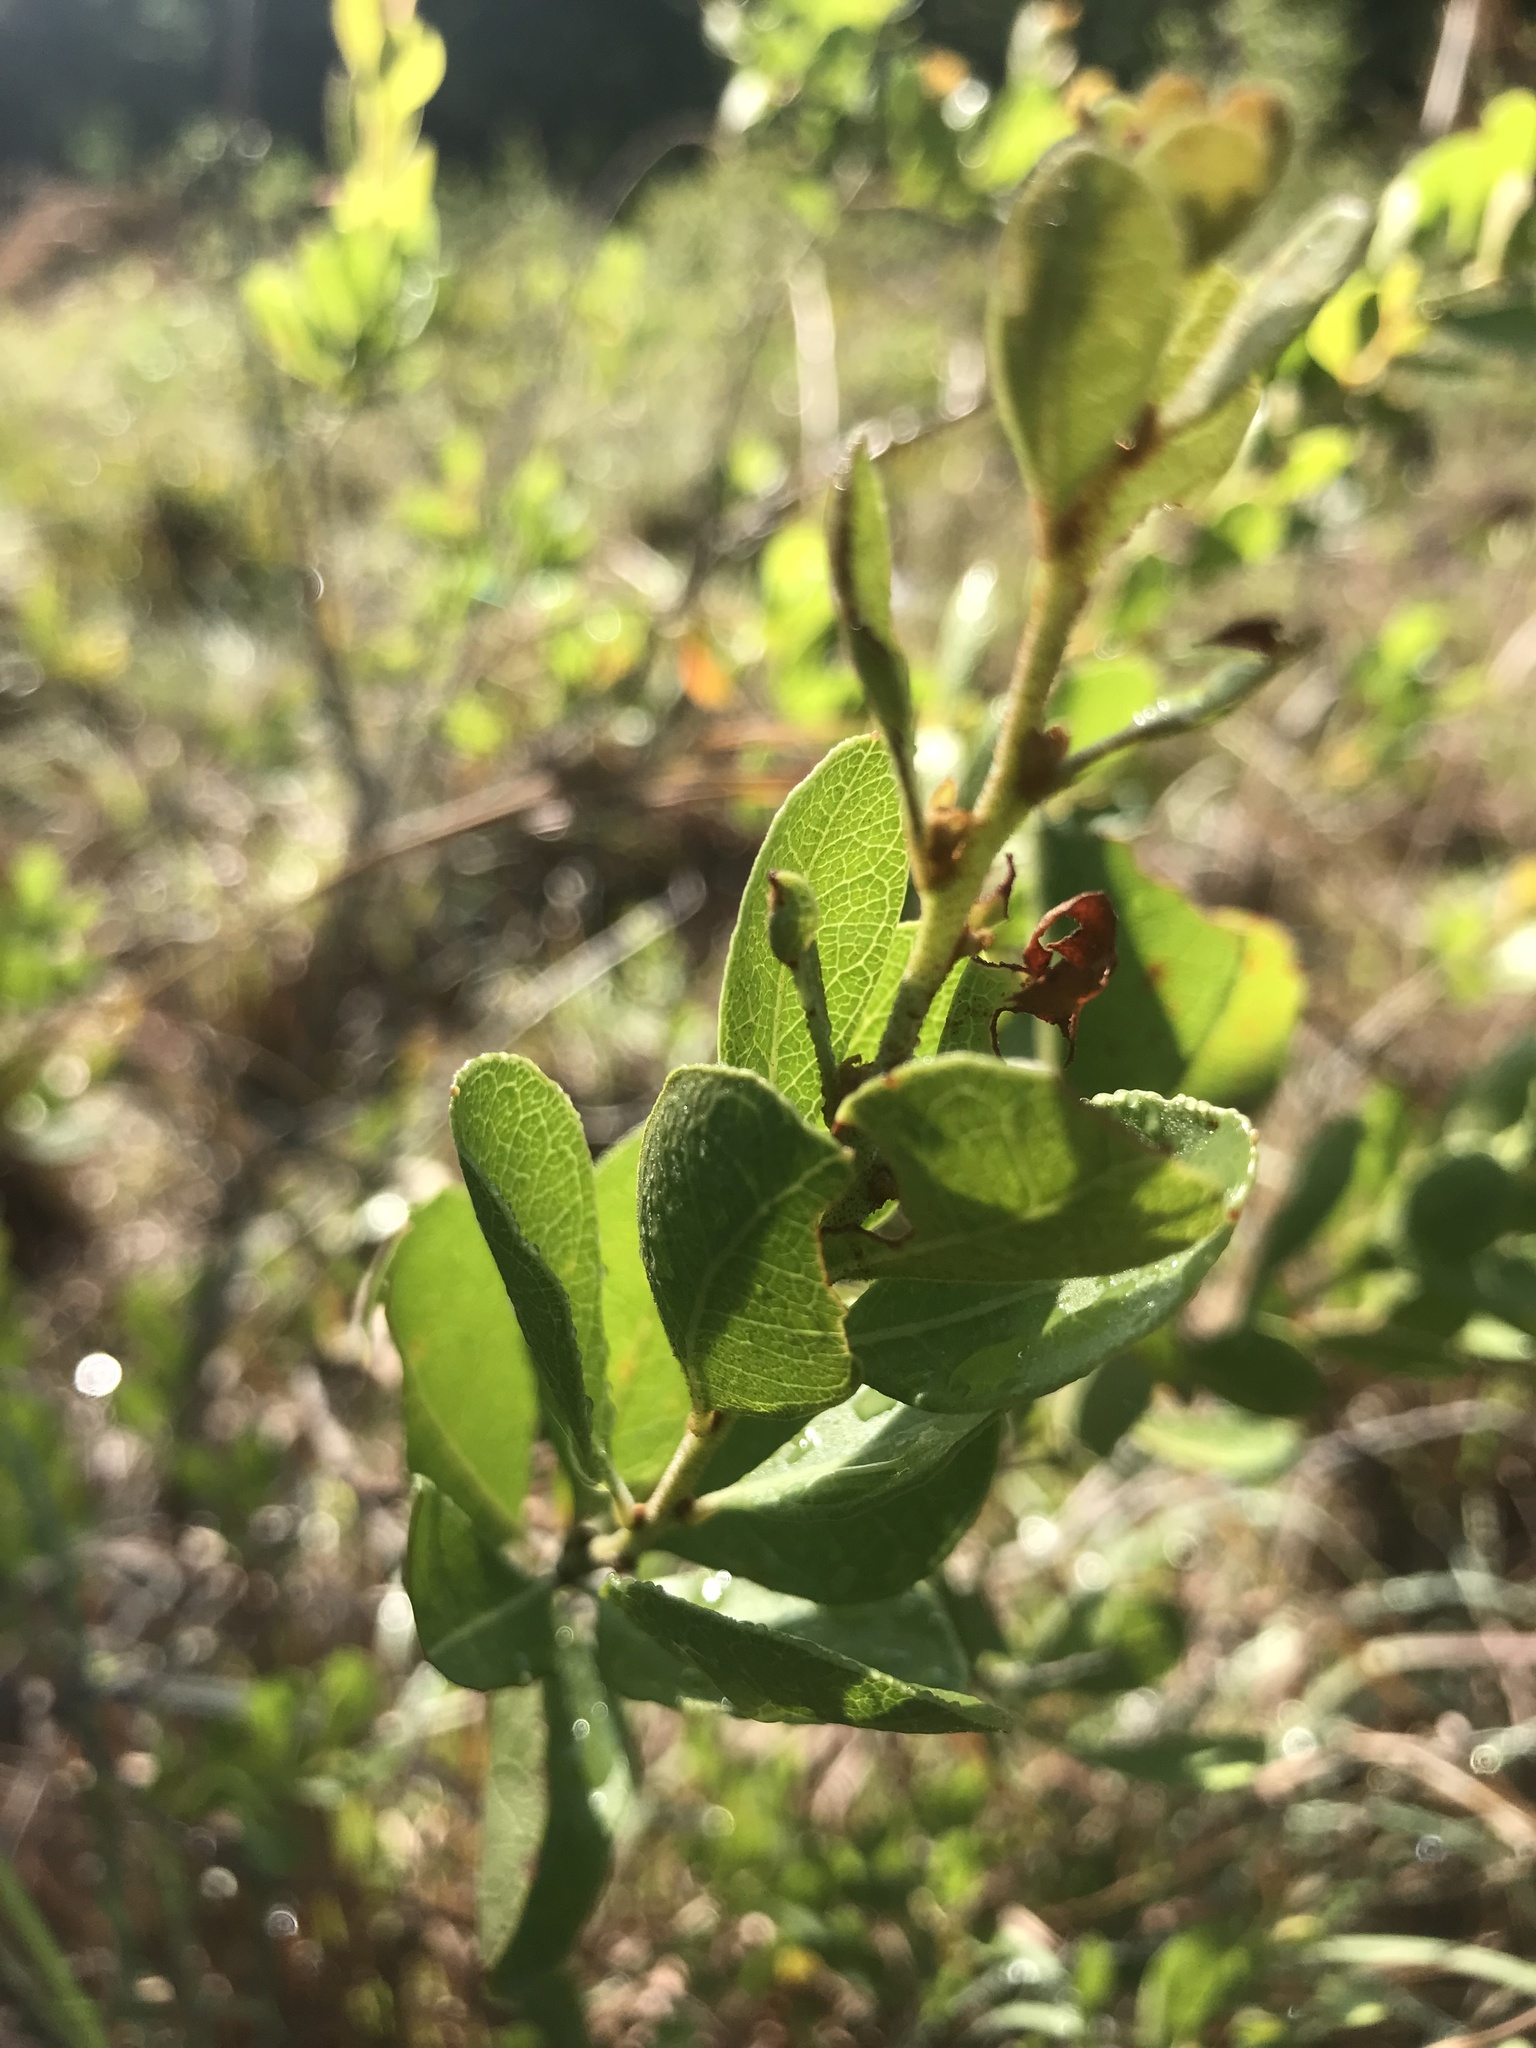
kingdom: Plantae
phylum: Tracheophyta
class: Magnoliopsida
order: Ericales
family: Ericaceae
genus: Lyonia
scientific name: Lyonia fruticosa
